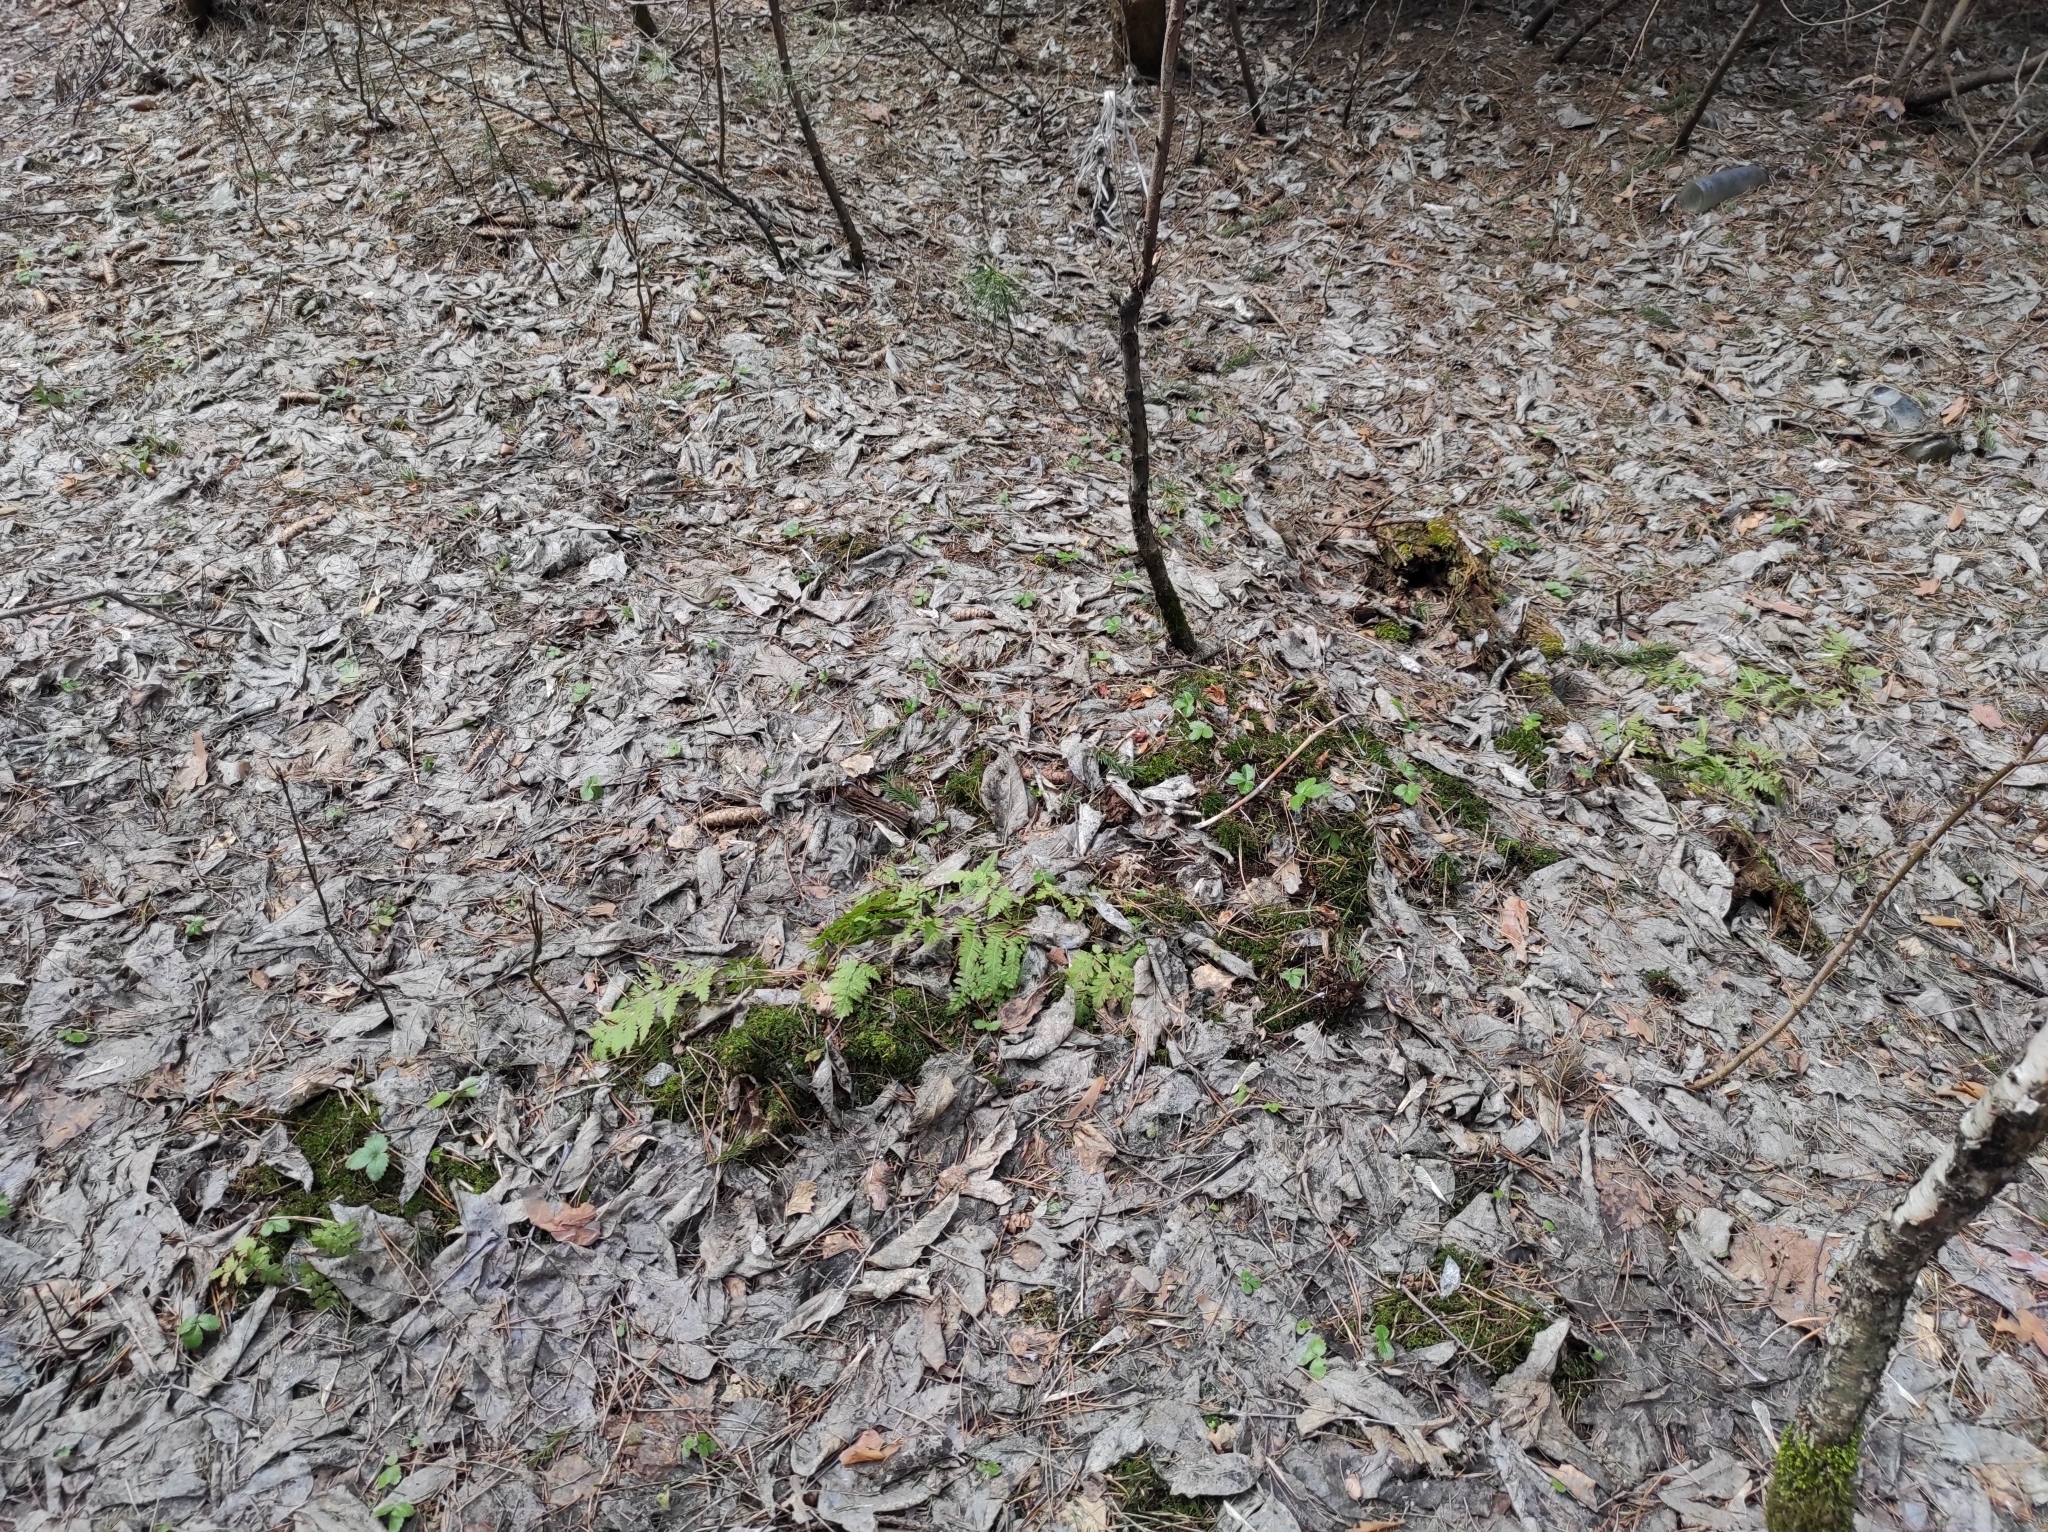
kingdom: Plantae
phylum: Tracheophyta
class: Polypodiopsida
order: Polypodiales
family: Dryopteridaceae
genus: Dryopteris
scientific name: Dryopteris carthusiana
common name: Narrow buckler-fern
